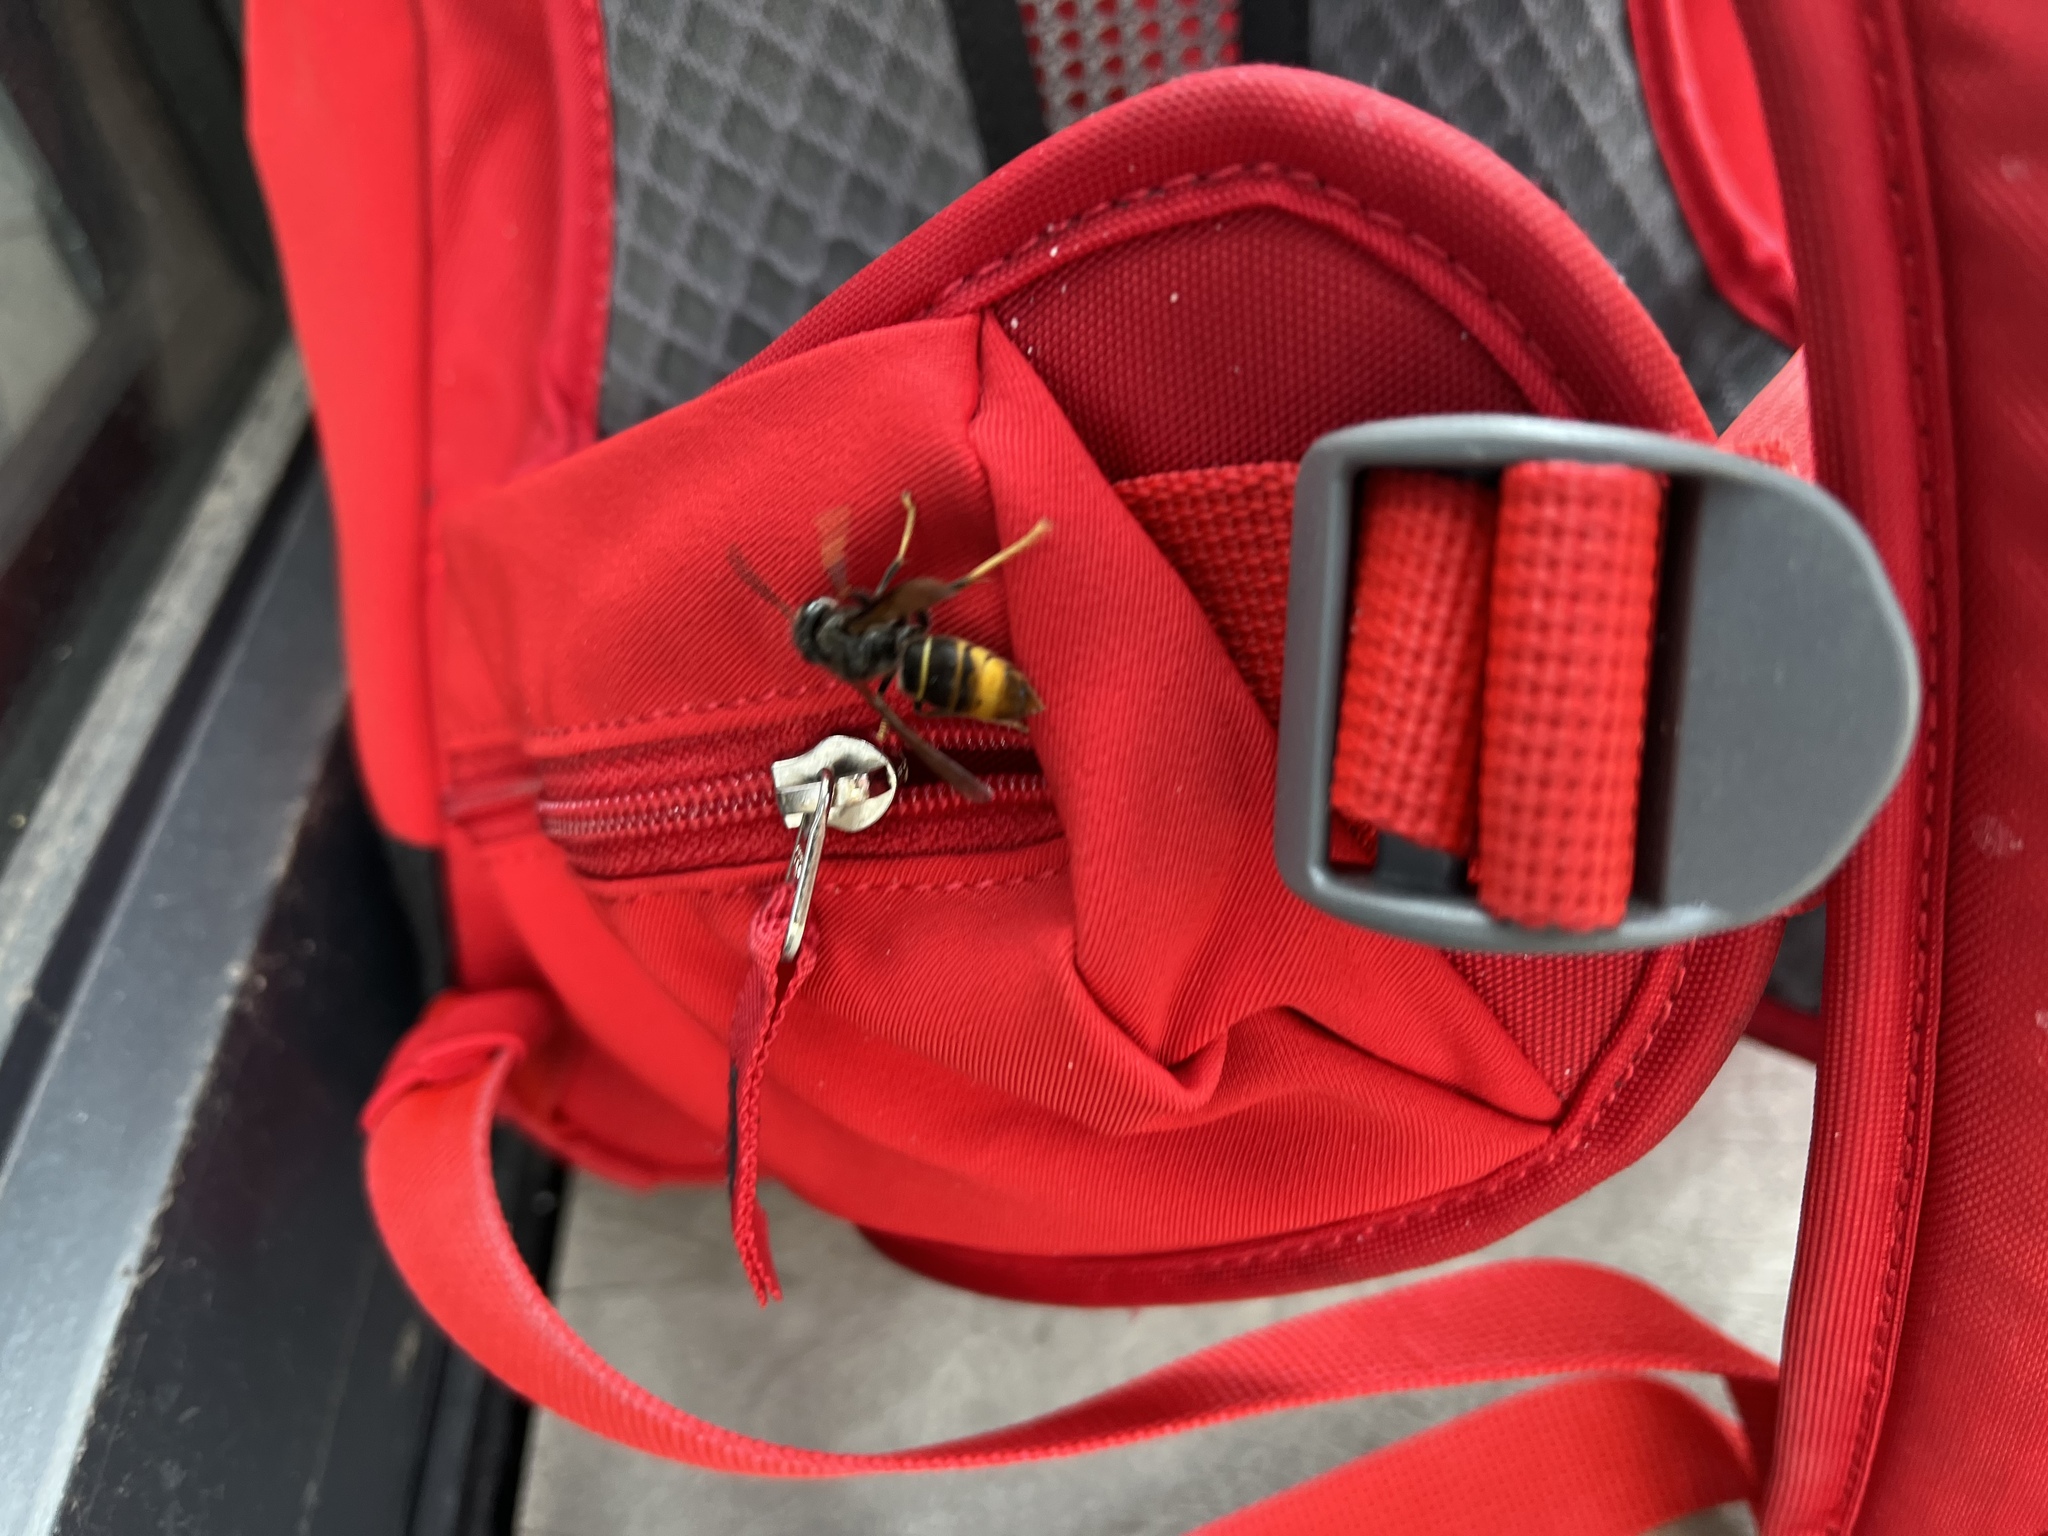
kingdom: Animalia
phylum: Arthropoda
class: Insecta
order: Hymenoptera
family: Vespidae
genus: Vespa
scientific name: Vespa velutina
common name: Asian hornet
